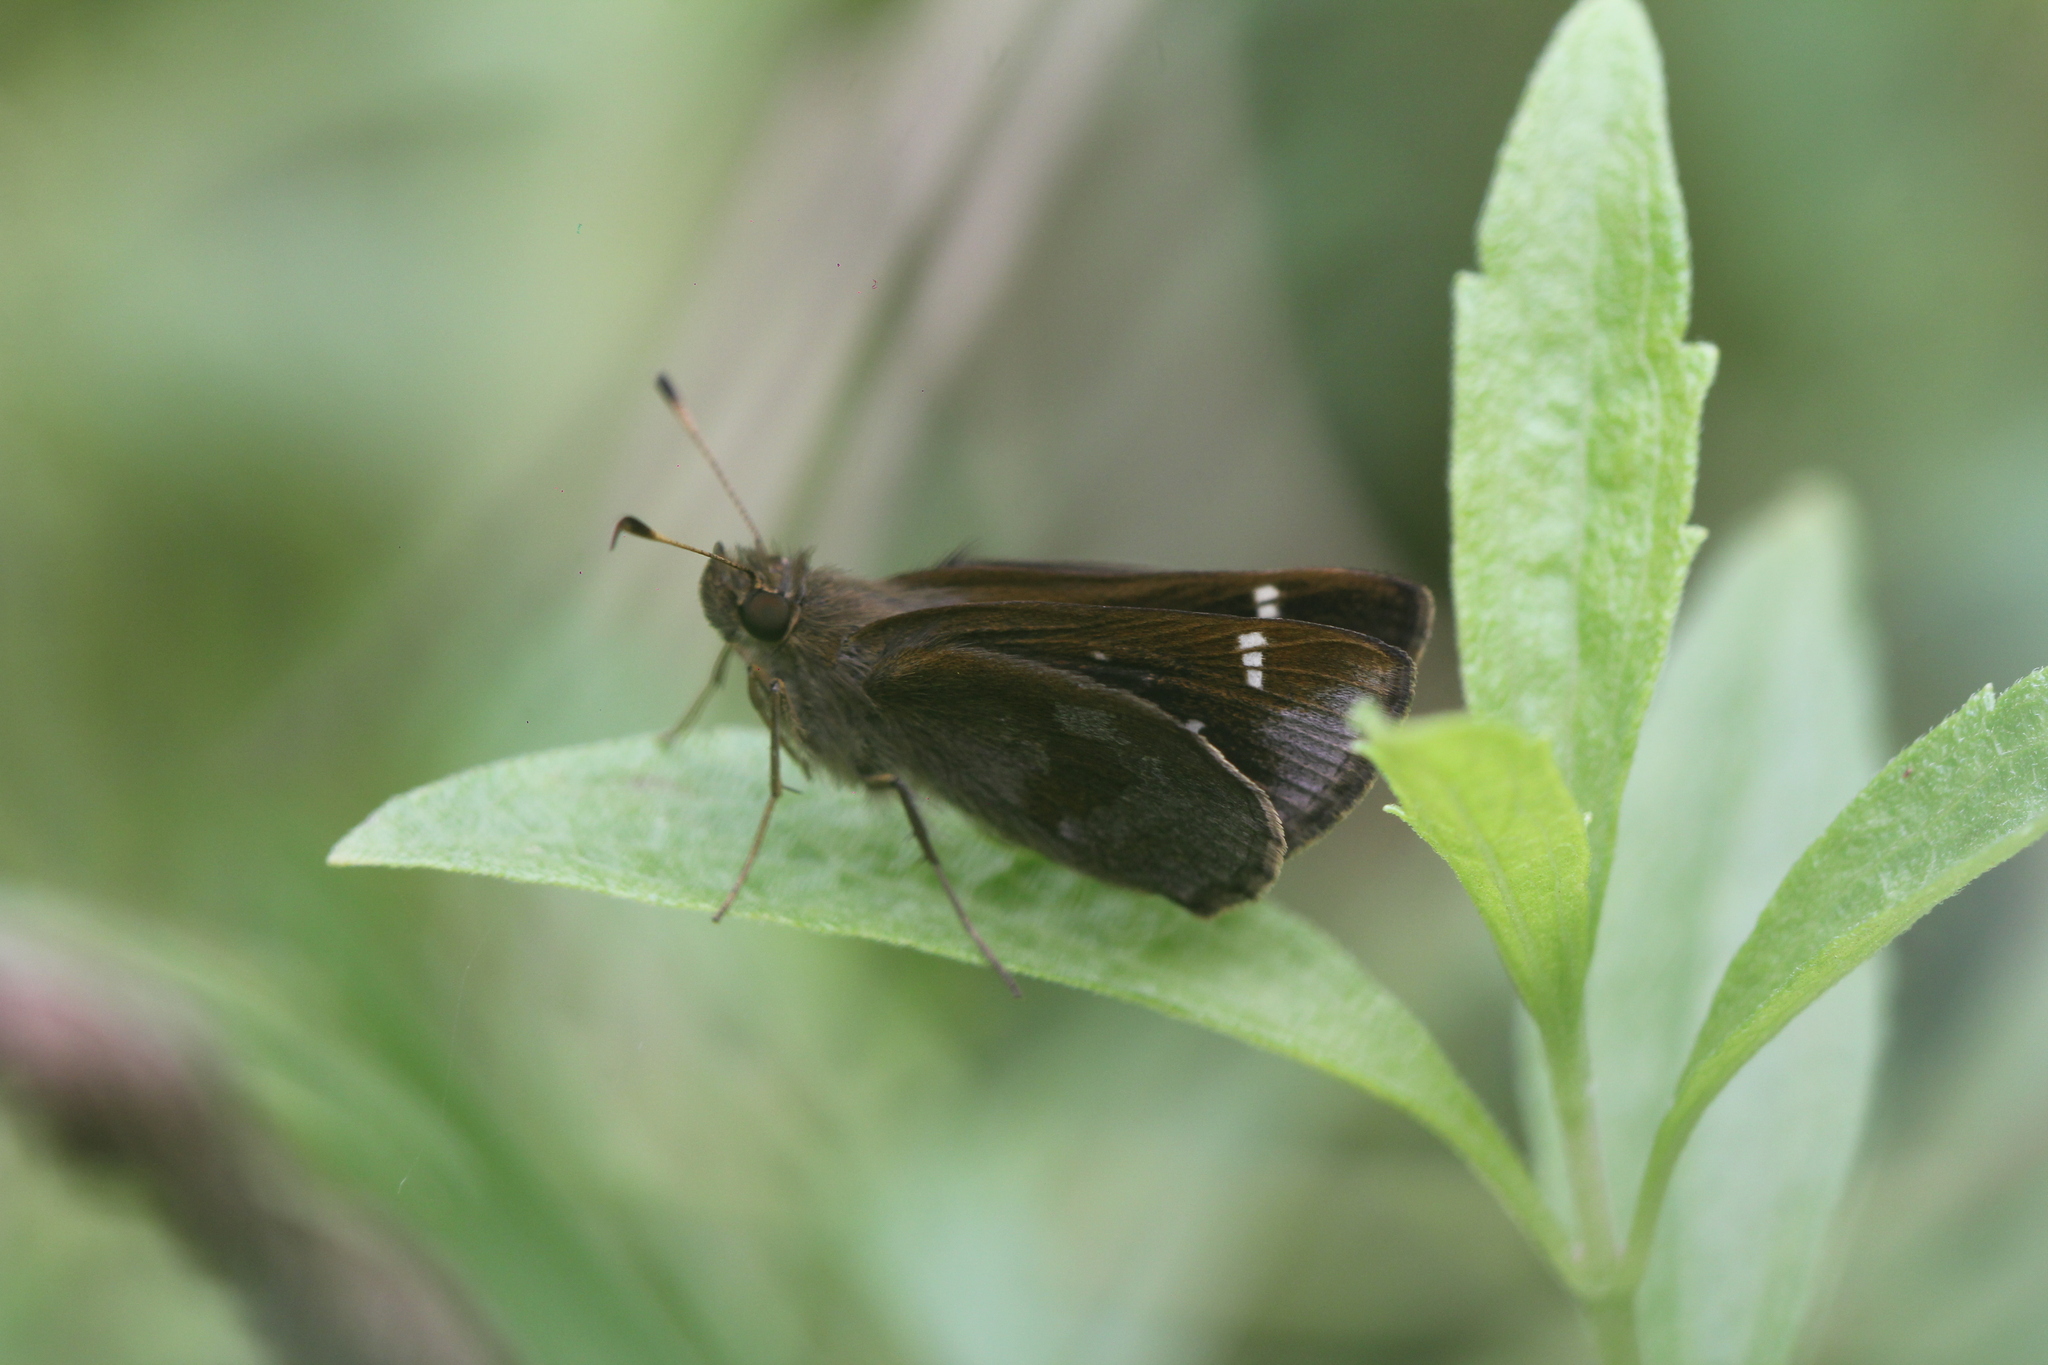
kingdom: Animalia
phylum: Arthropoda
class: Insecta
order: Lepidoptera
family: Hesperiidae
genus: Cymaenes
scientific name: Cymaenes
